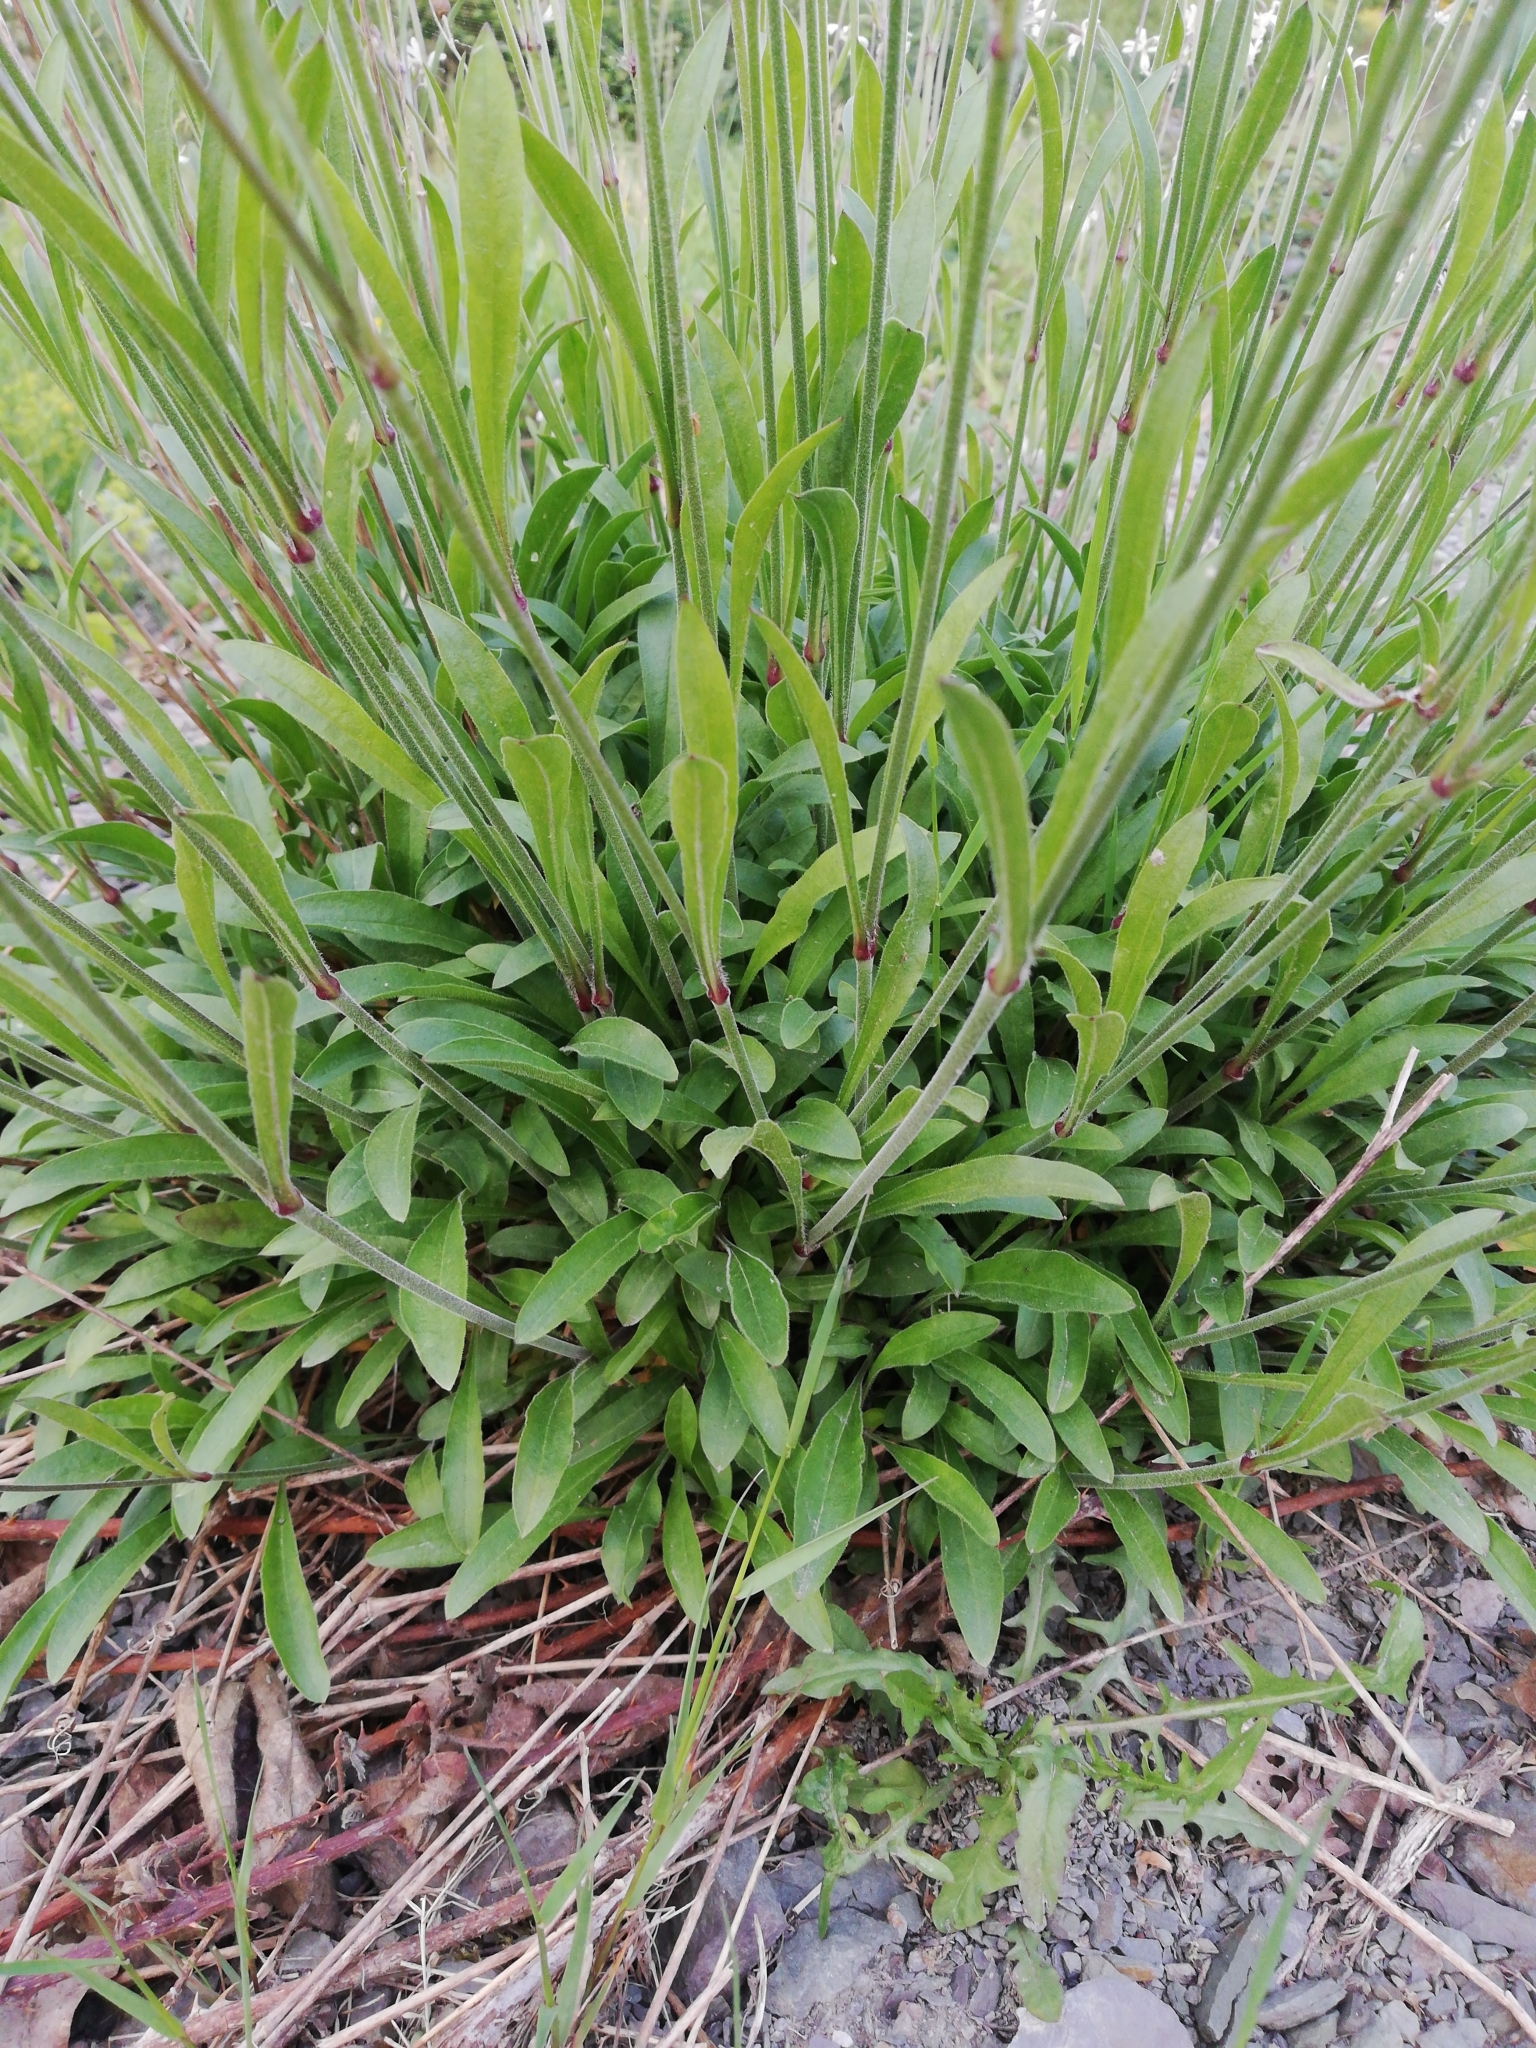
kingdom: Plantae
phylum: Tracheophyta
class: Magnoliopsida
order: Caryophyllales
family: Caryophyllaceae
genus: Silene
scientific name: Silene nutans
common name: Nottingham catchfly
